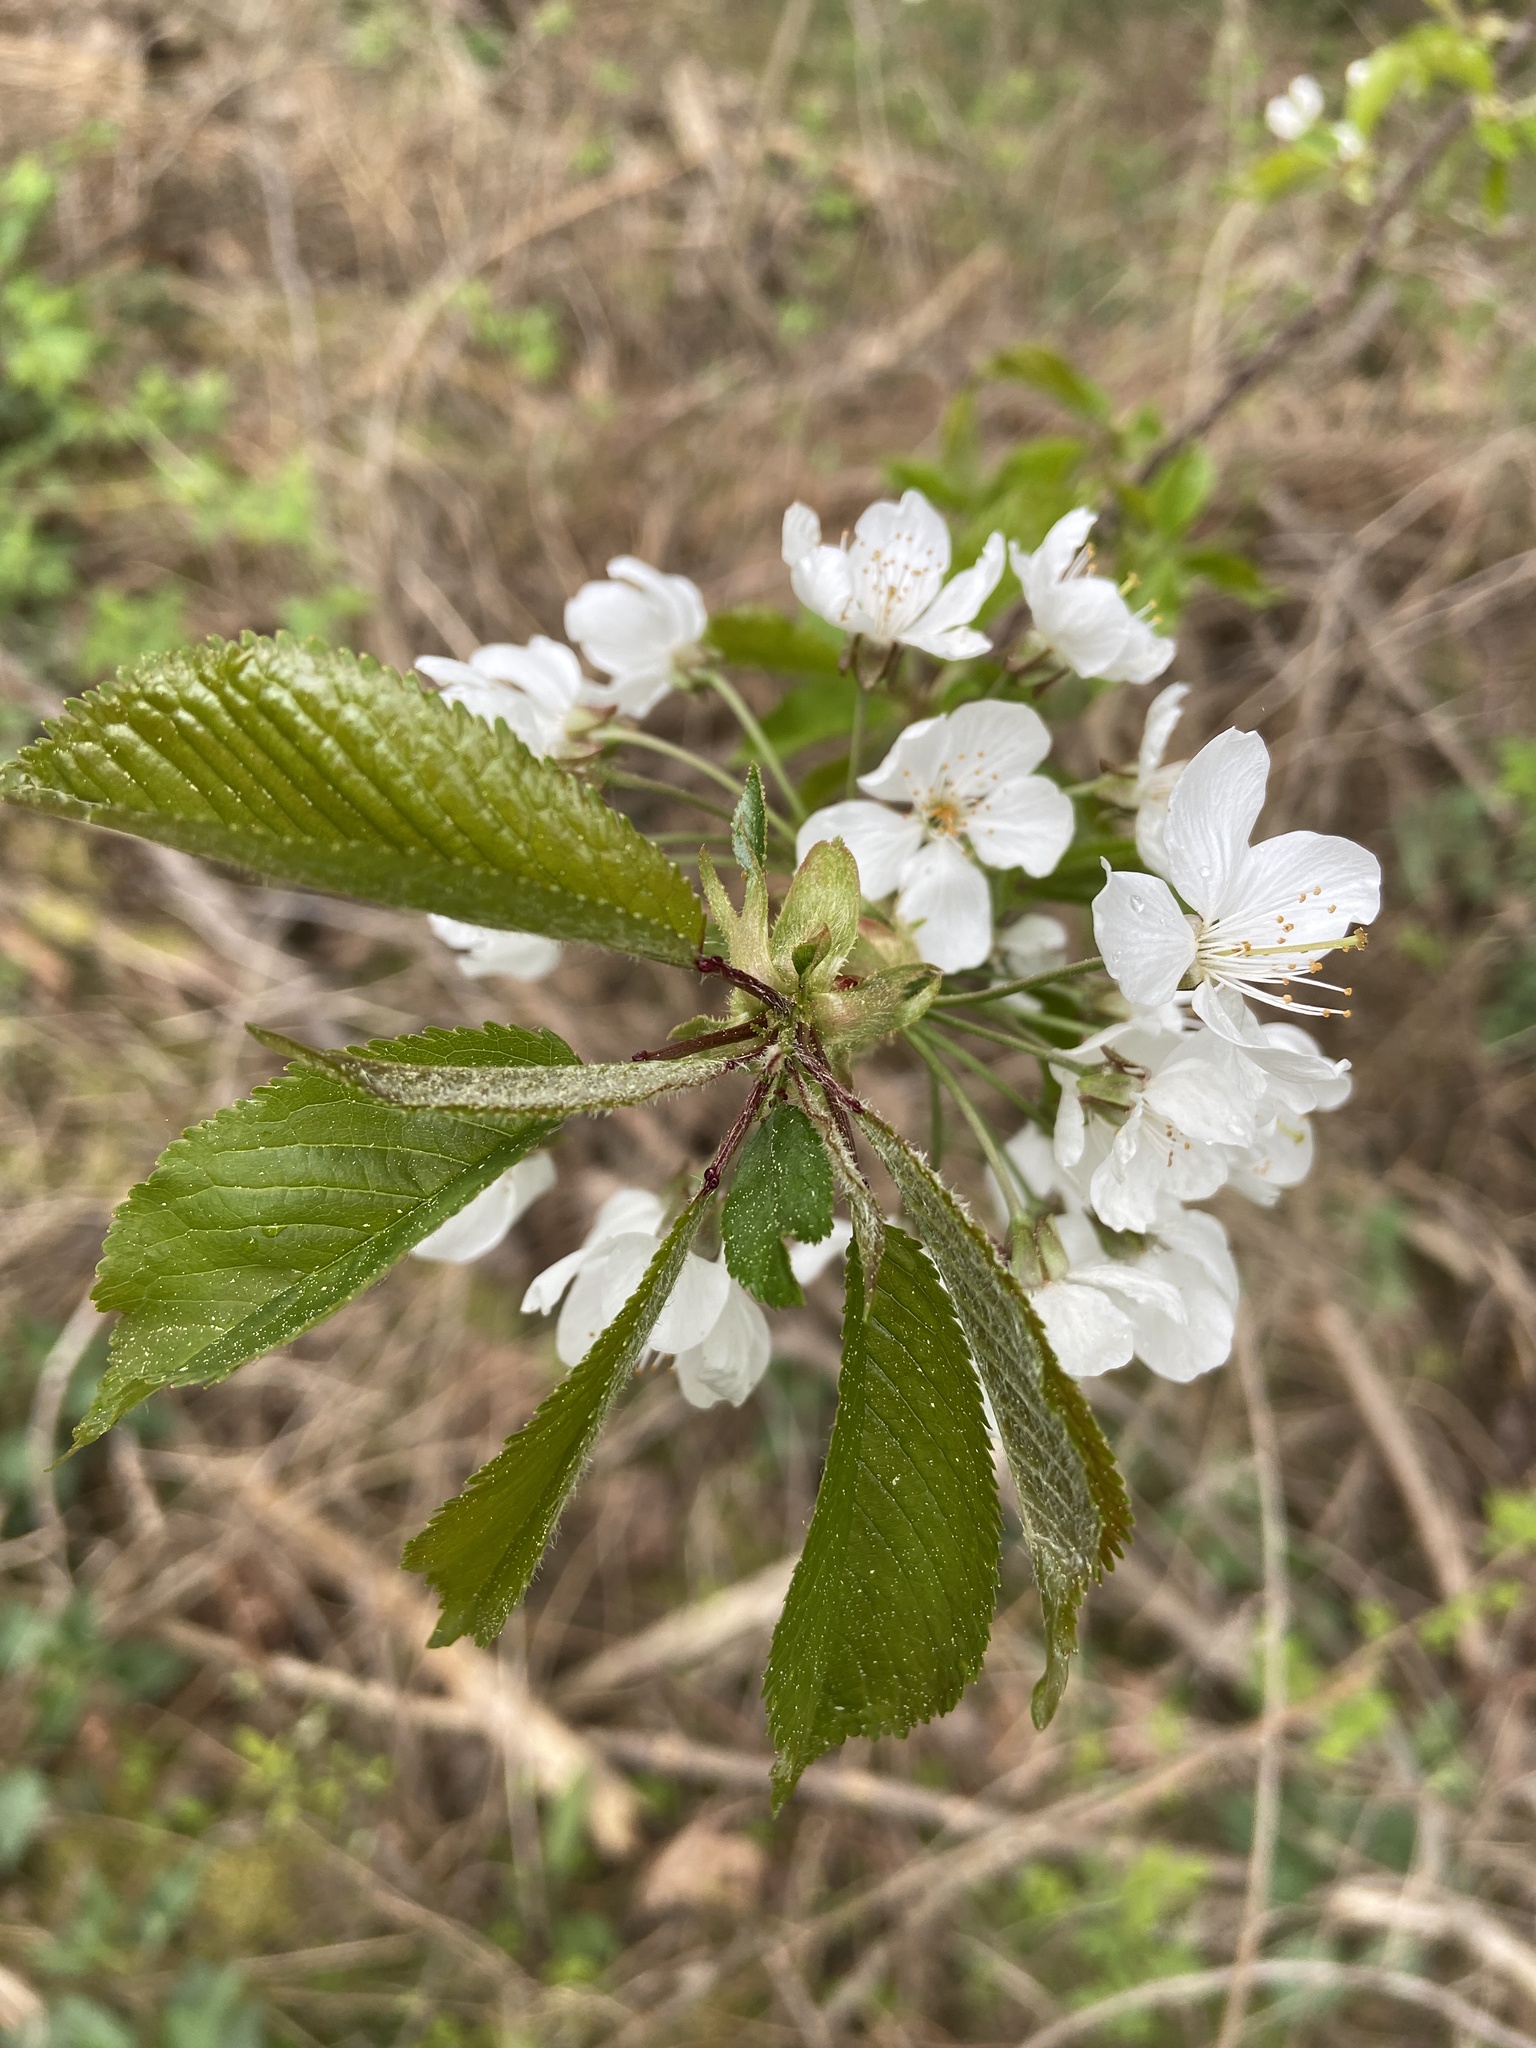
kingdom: Plantae
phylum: Tracheophyta
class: Magnoliopsida
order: Rosales
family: Rosaceae
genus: Prunus
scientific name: Prunus avium
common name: Sweet cherry
